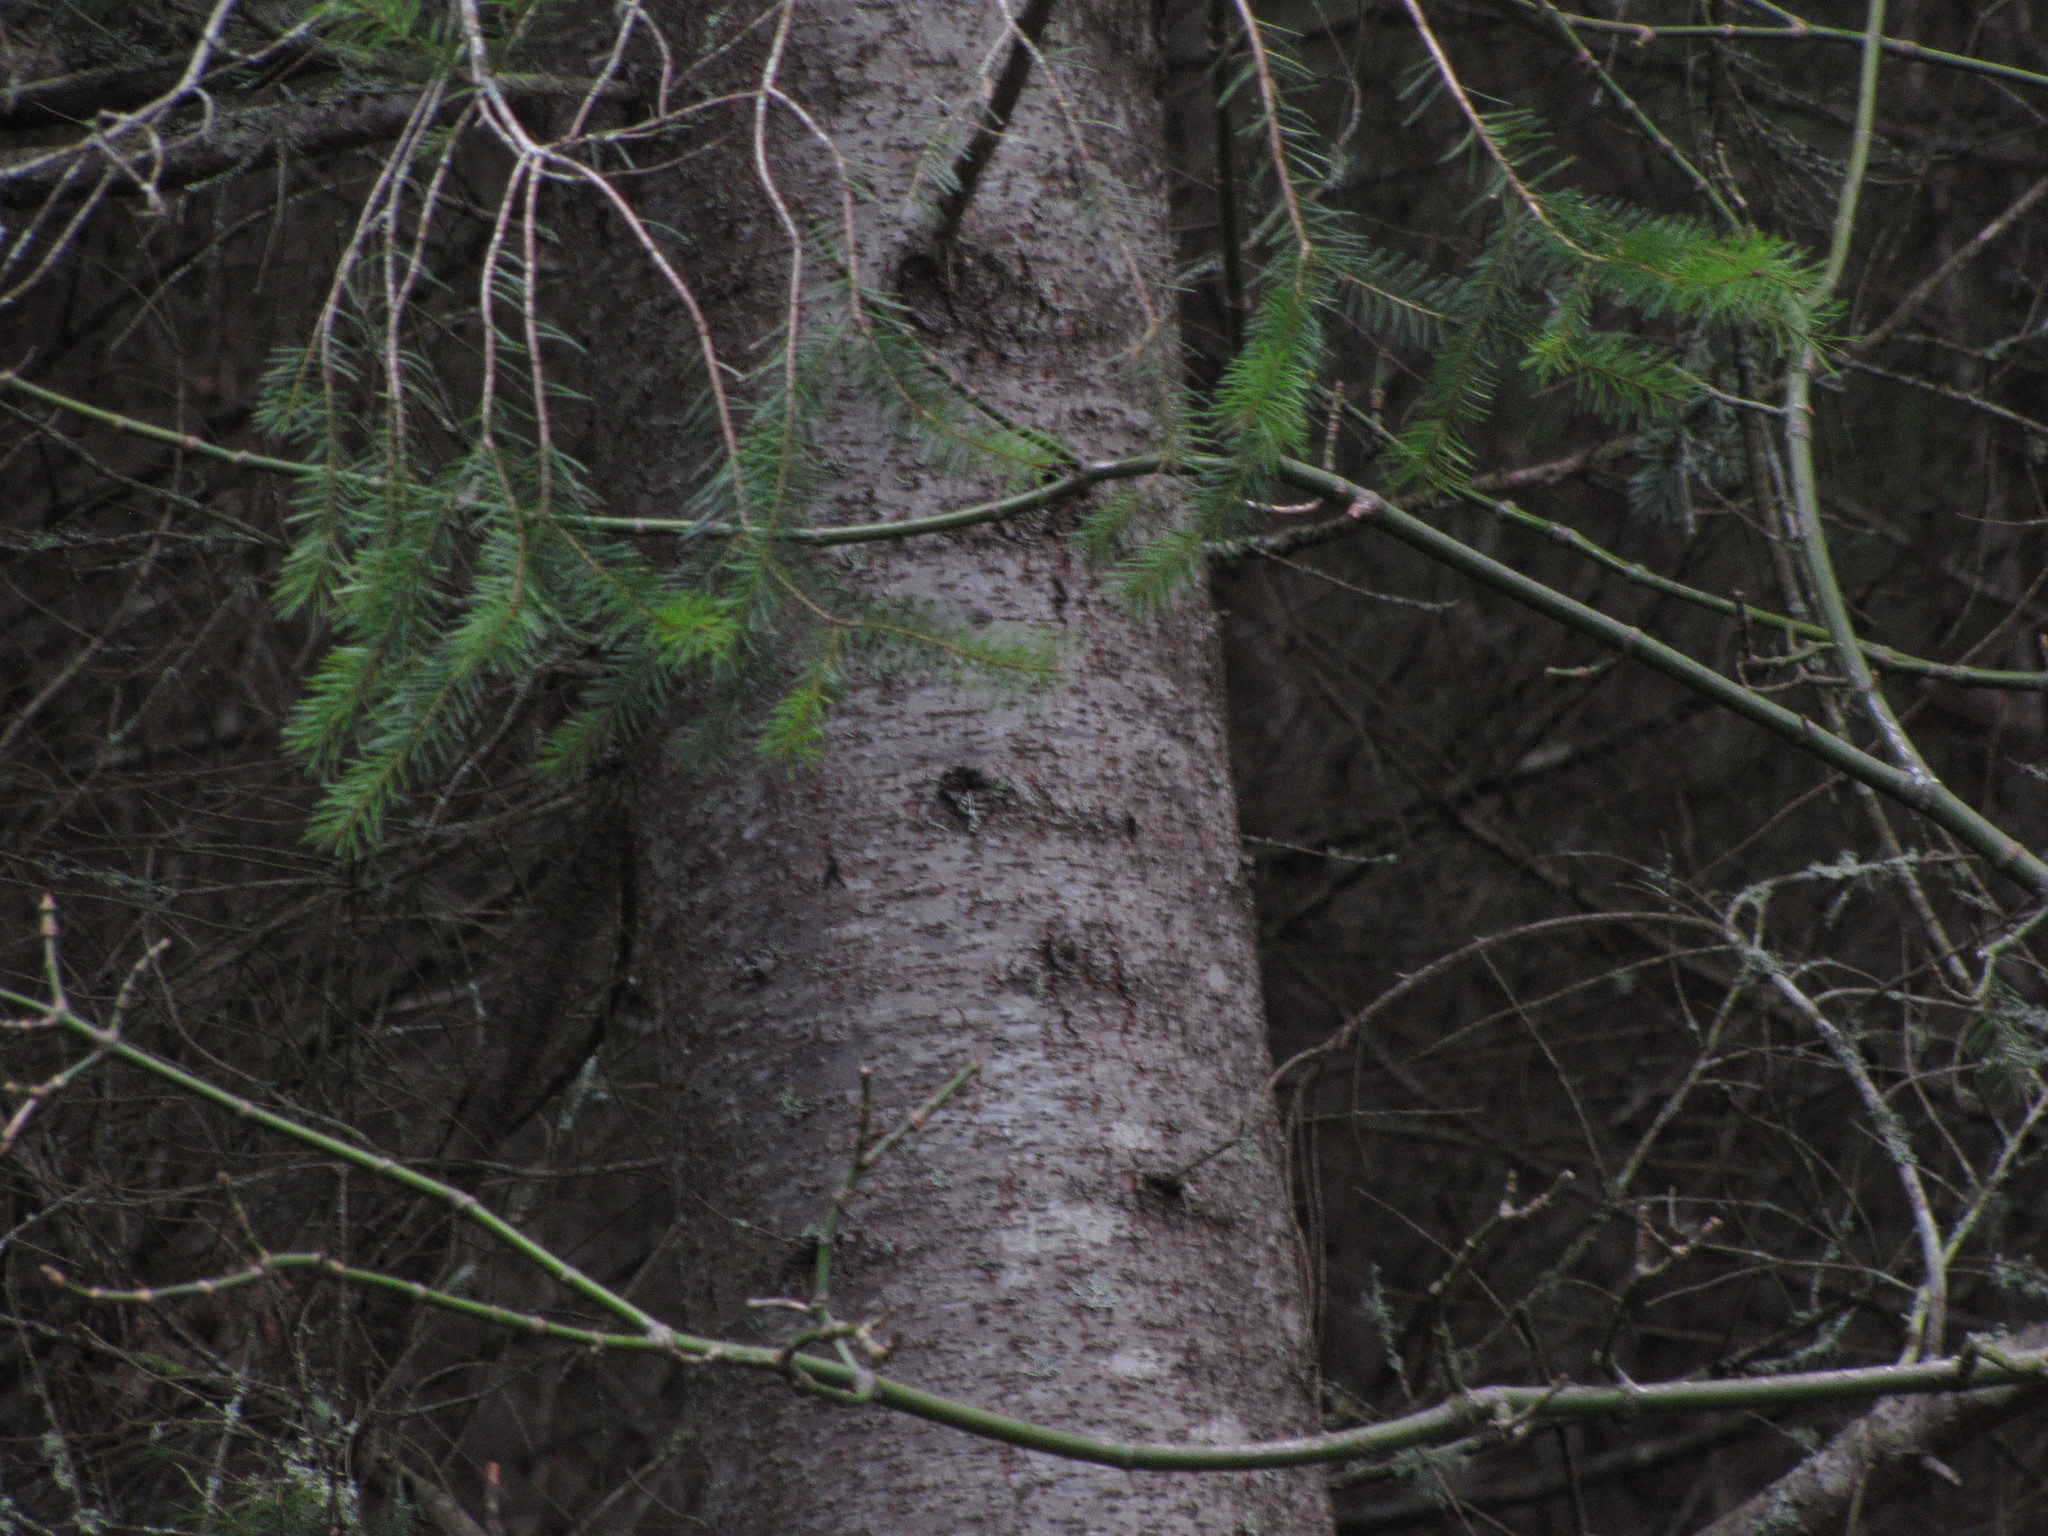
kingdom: Plantae
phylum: Tracheophyta
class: Pinopsida
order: Pinales
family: Pinaceae
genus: Pseudotsuga
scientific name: Pseudotsuga menziesii
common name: Douglas fir
